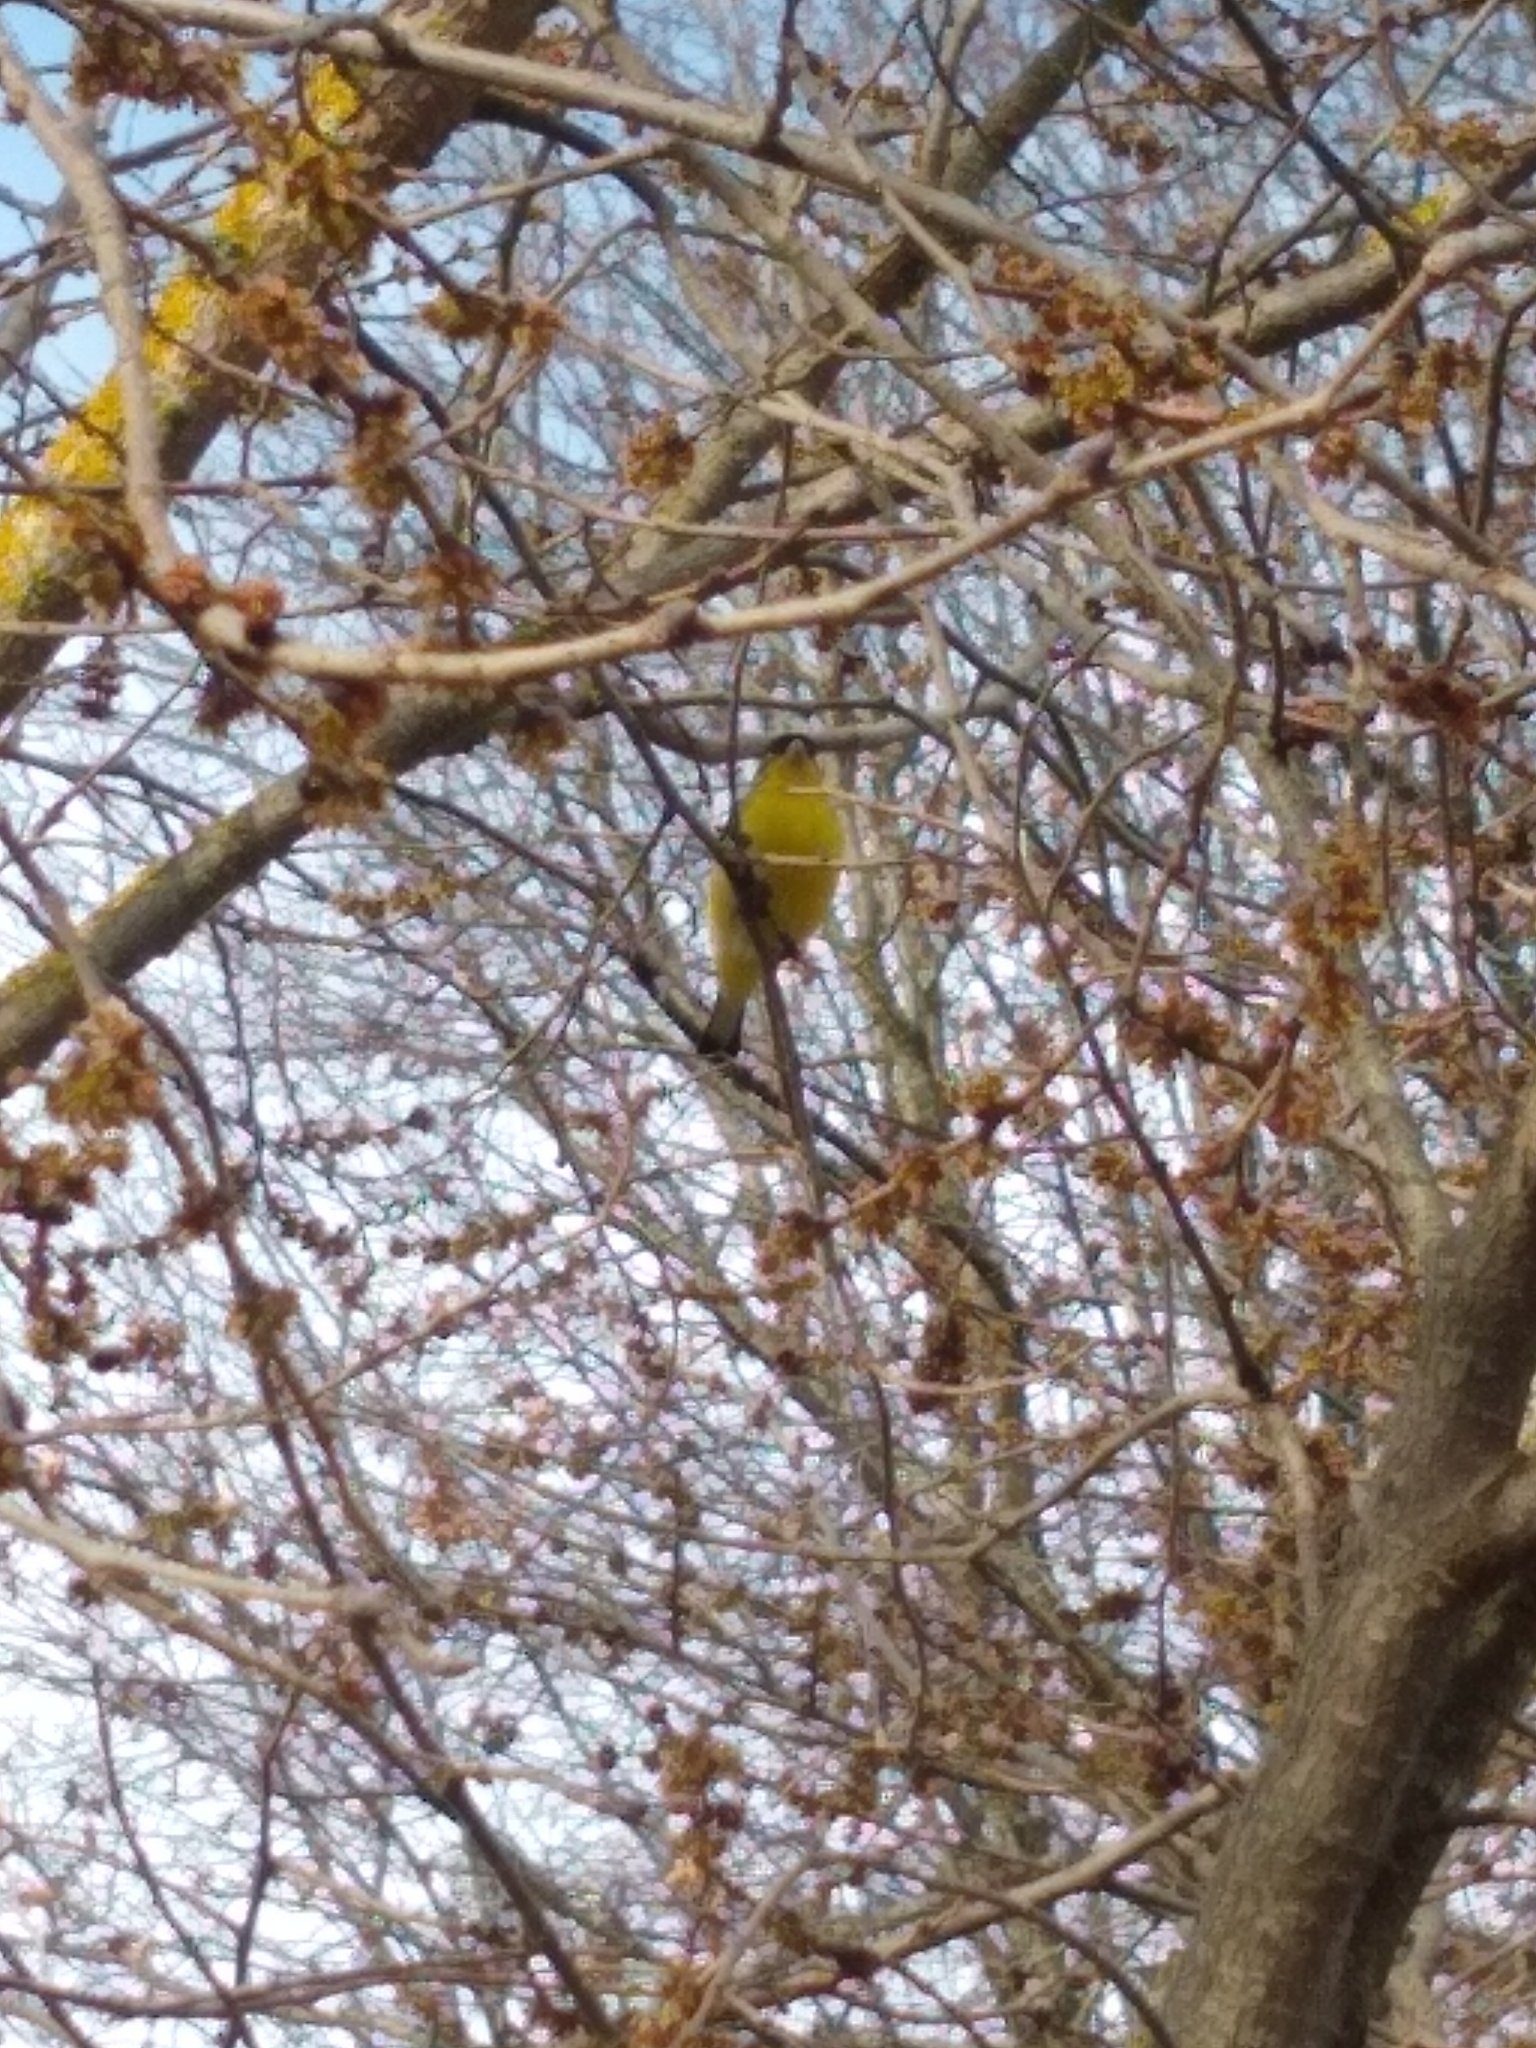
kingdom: Animalia
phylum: Chordata
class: Aves
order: Passeriformes
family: Fringillidae
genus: Spinus
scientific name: Spinus psaltria
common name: Lesser goldfinch
